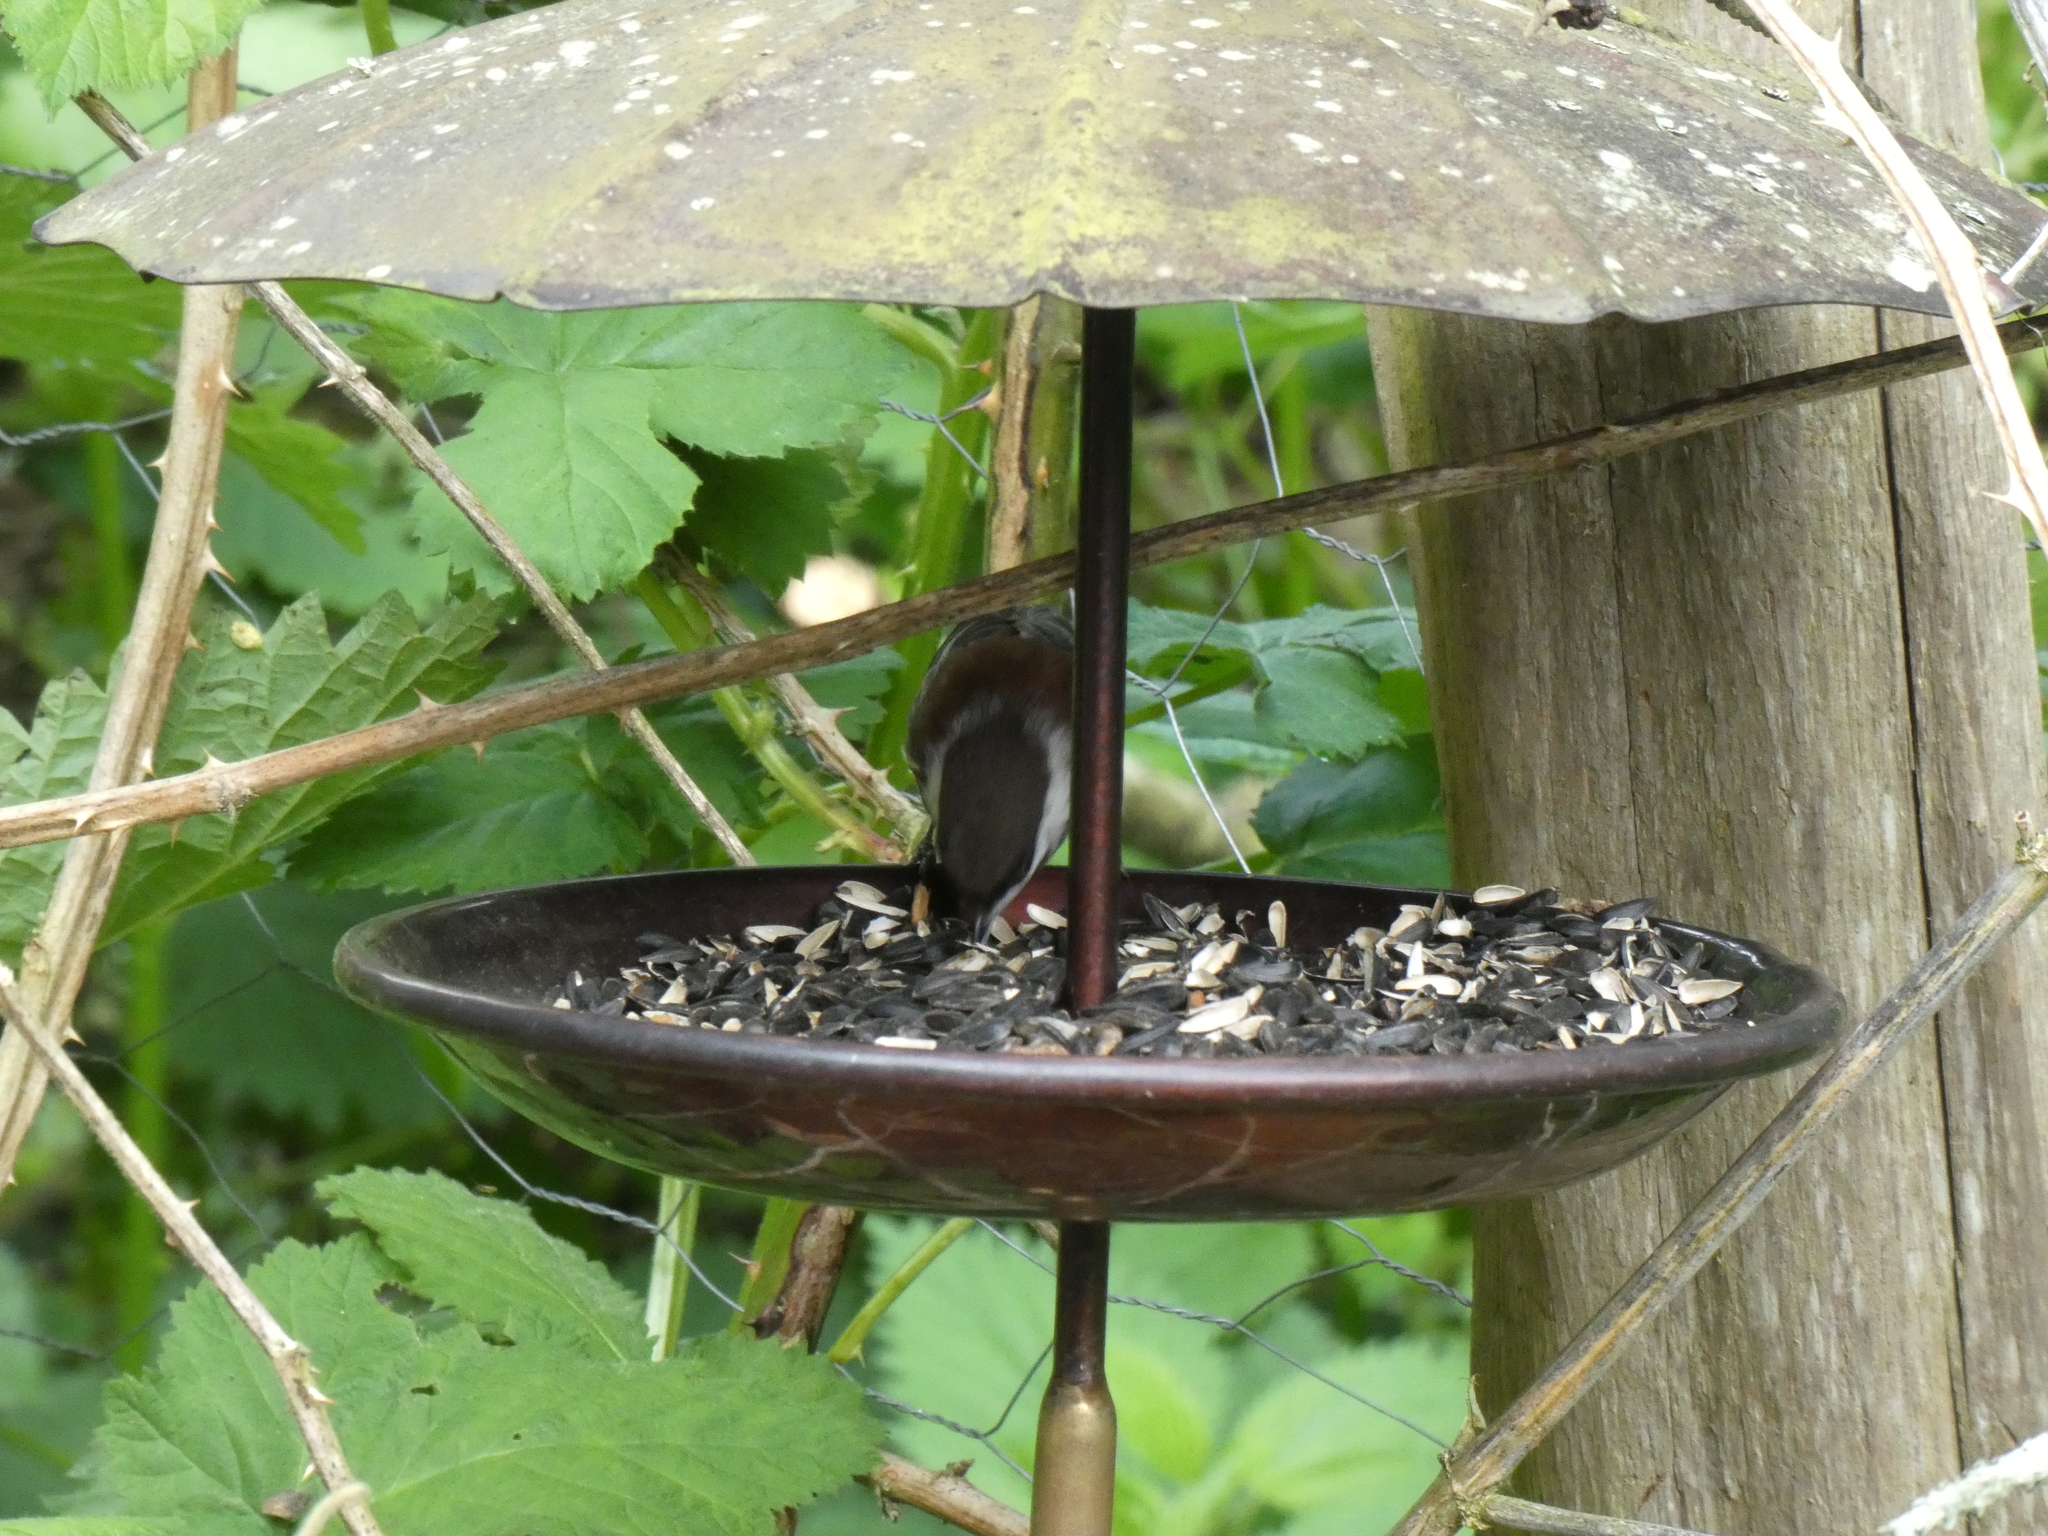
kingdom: Animalia
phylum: Chordata
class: Aves
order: Passeriformes
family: Paridae
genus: Poecile
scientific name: Poecile rufescens
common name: Chestnut-backed chickadee
